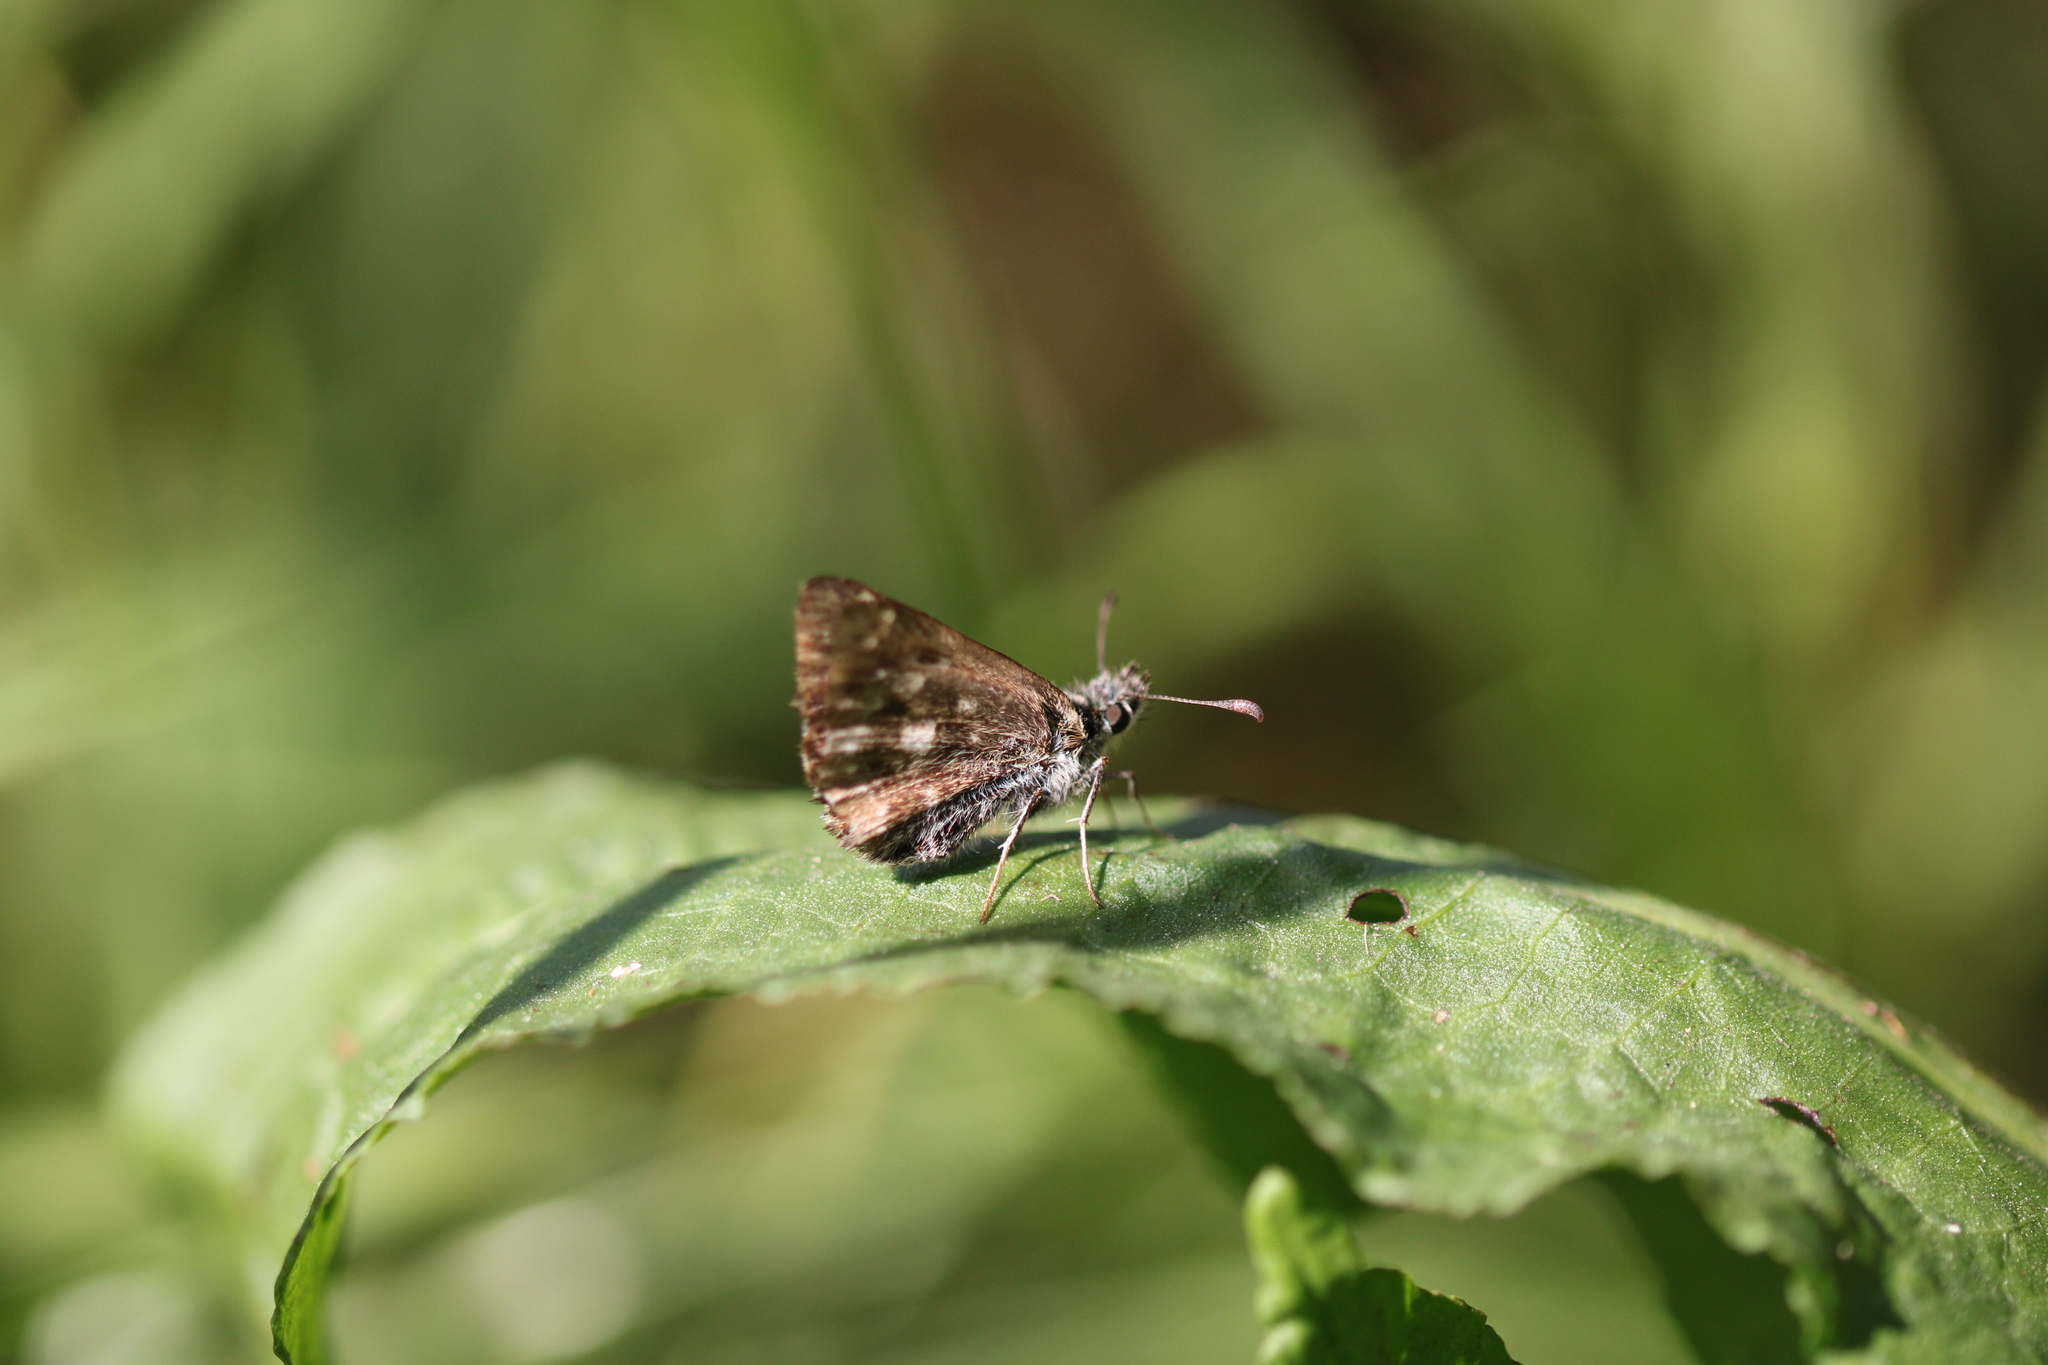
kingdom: Animalia
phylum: Arthropoda
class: Insecta
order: Lepidoptera
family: Hesperiidae
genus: Carcharodus
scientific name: Carcharodus alceae
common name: Mallow skipper
